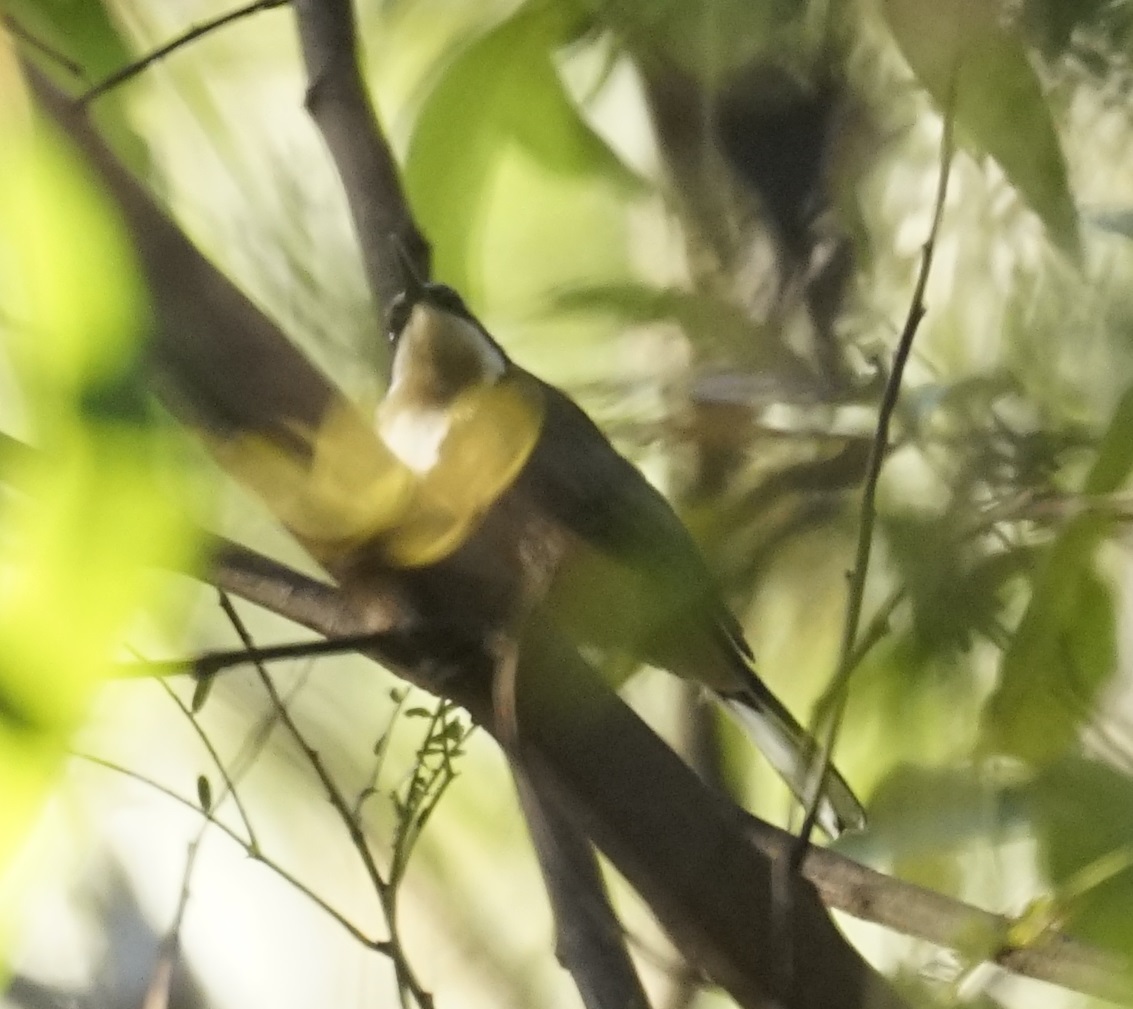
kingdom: Animalia
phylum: Chordata
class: Aves
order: Passeriformes
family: Meliphagidae
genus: Acanthorhynchus
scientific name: Acanthorhynchus tenuirostris
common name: Eastern spinebill
